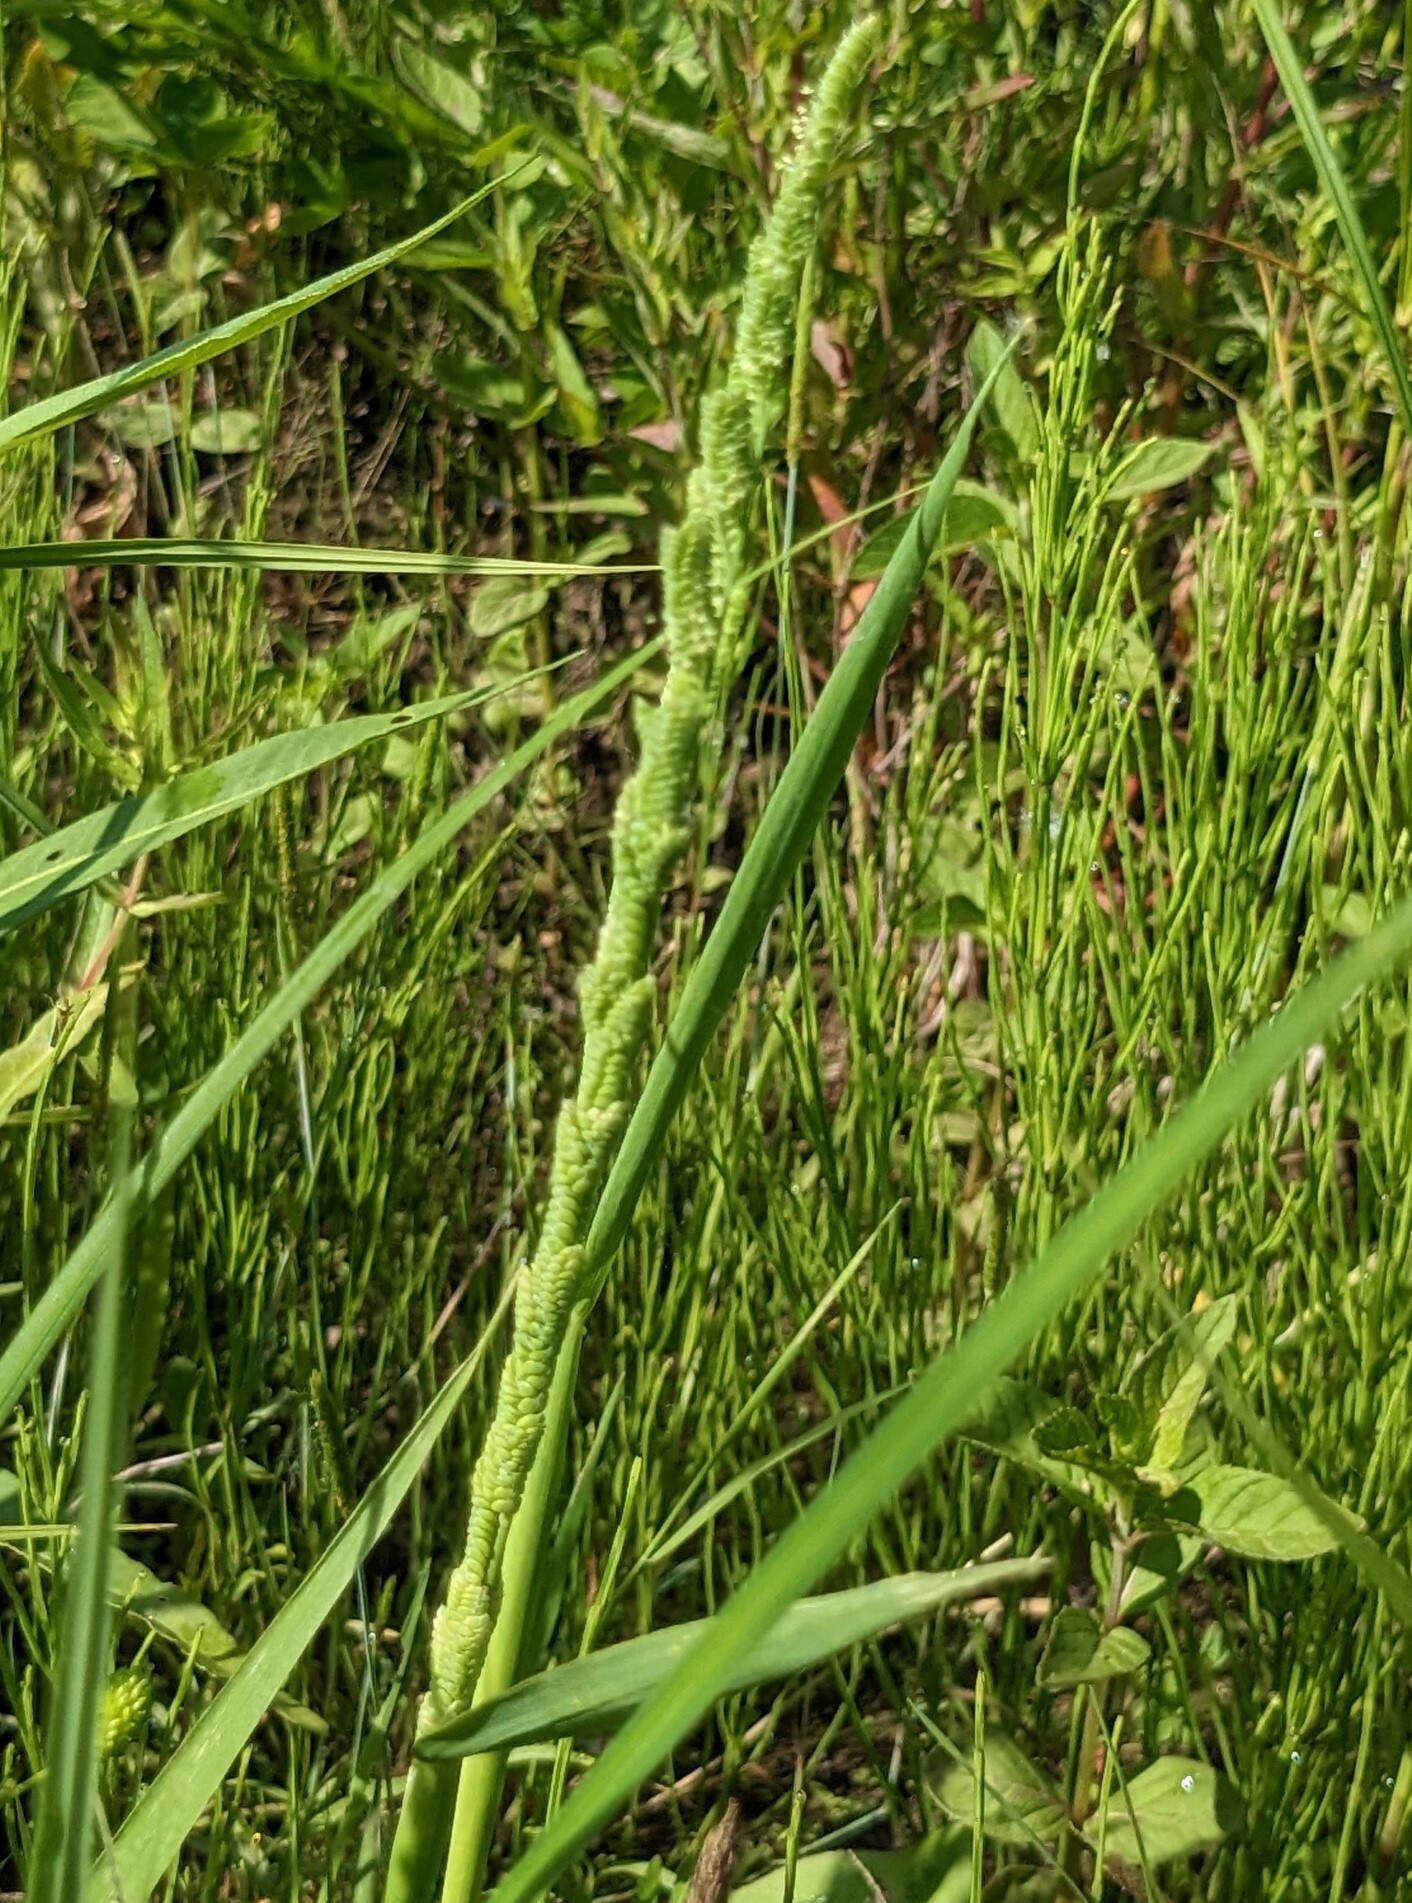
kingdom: Plantae
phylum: Tracheophyta
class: Liliopsida
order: Poales
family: Poaceae
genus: Beckmannia
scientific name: Beckmannia syzigachne
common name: American slough-grass
